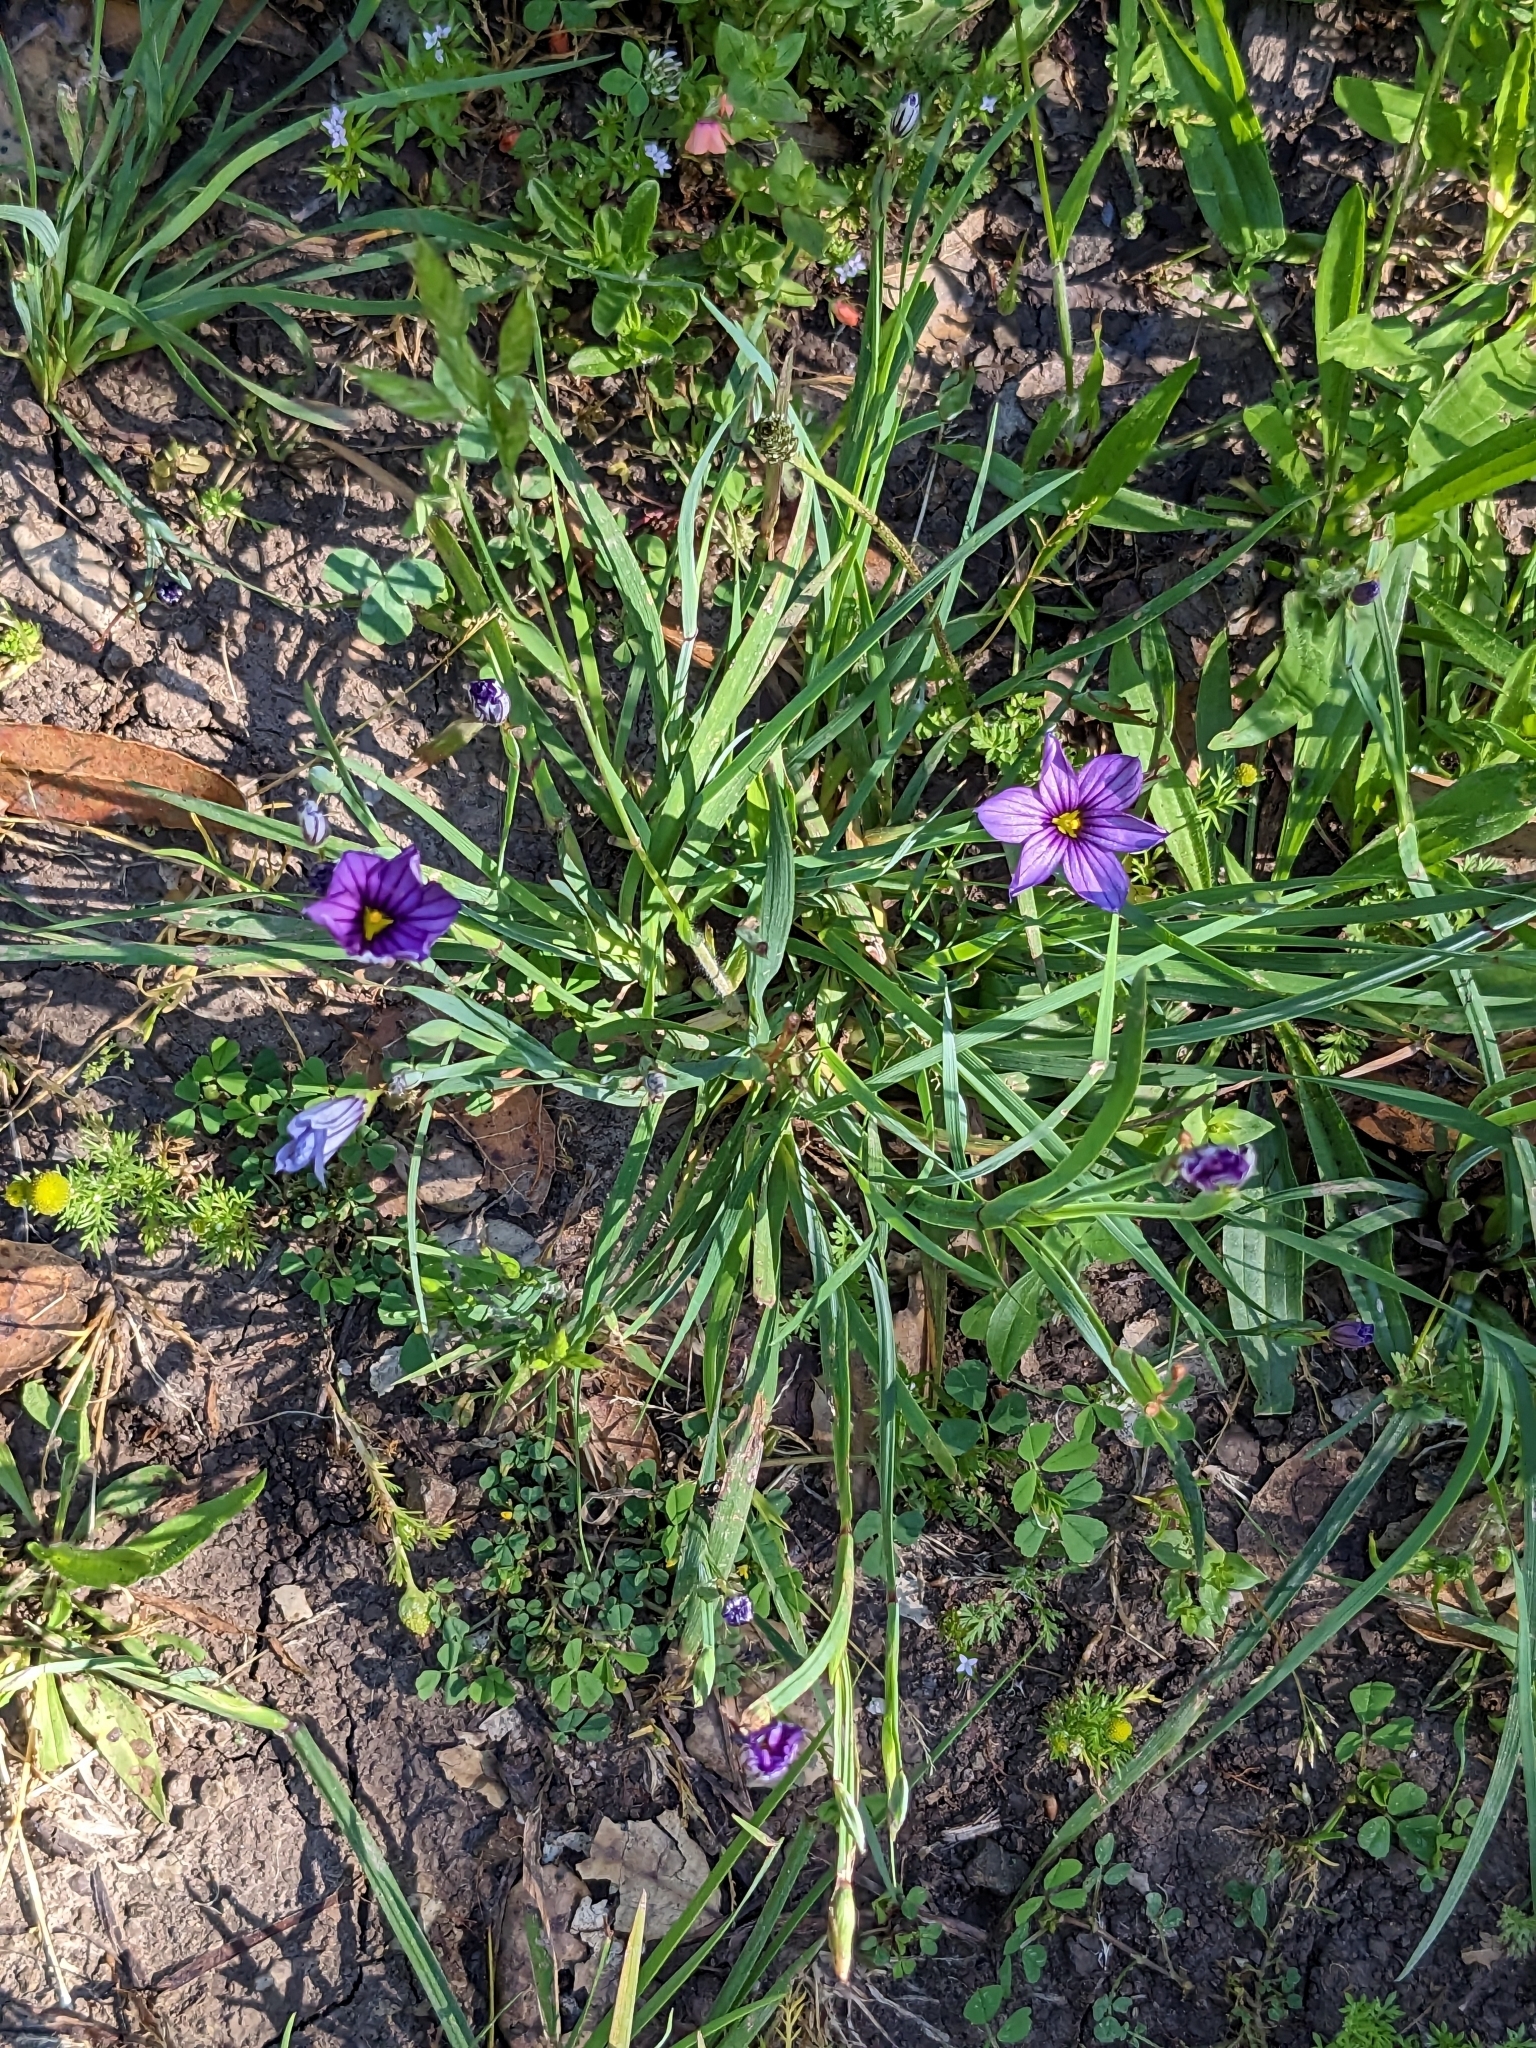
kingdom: Plantae
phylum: Tracheophyta
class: Liliopsida
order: Asparagales
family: Iridaceae
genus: Sisyrinchium
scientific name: Sisyrinchium bellum
